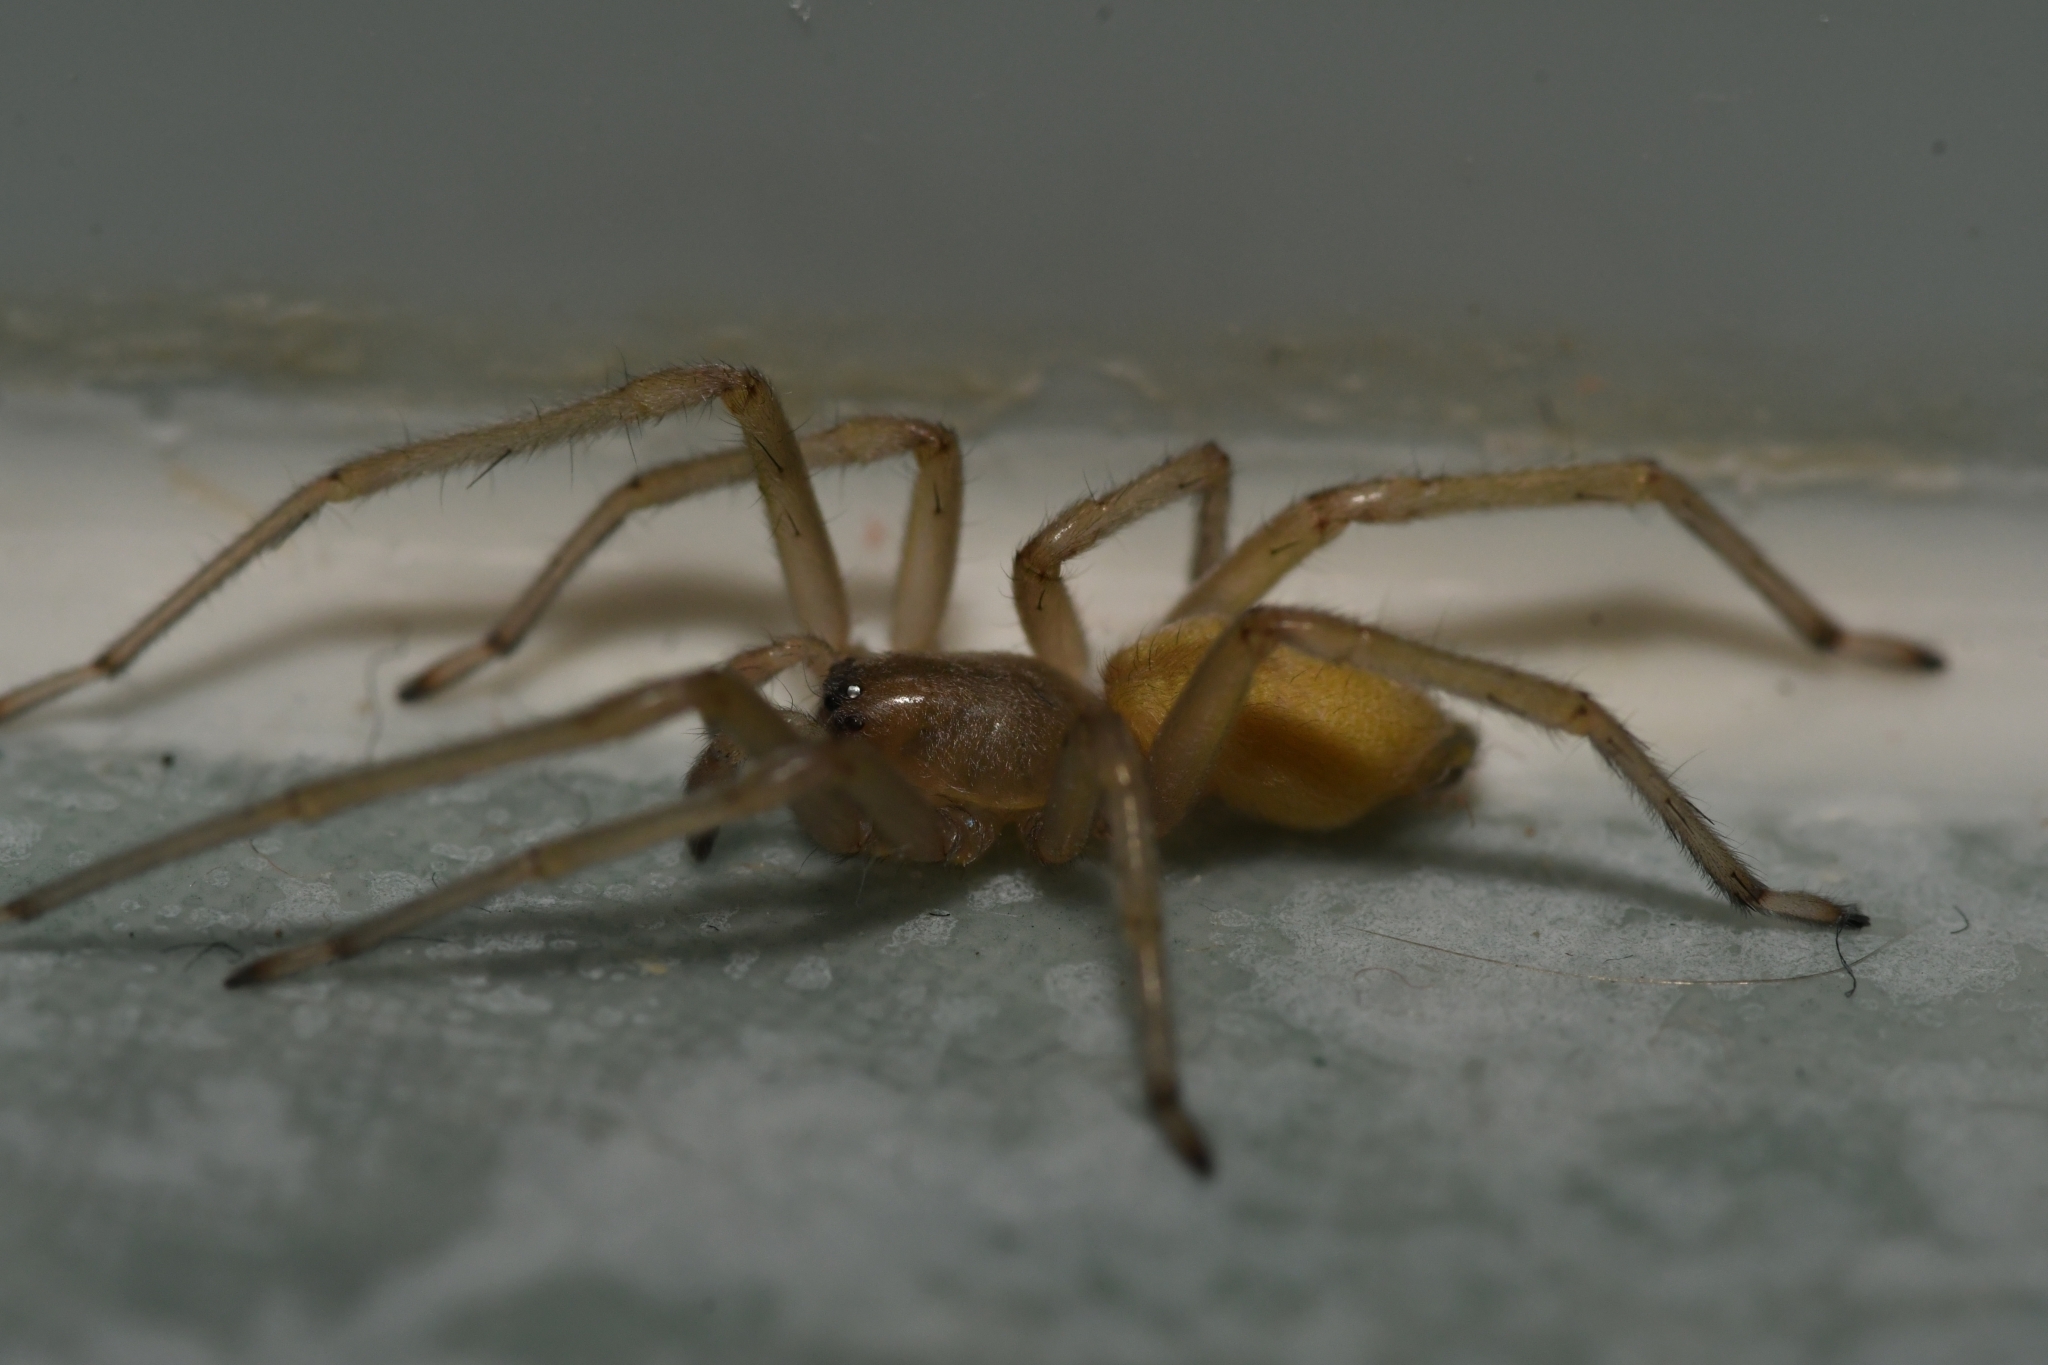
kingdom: Animalia
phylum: Arthropoda
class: Arachnida
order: Araneae
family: Cheiracanthiidae
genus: Cheiracanthium
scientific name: Cheiracanthium mildei
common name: Northern yellow sac spider
